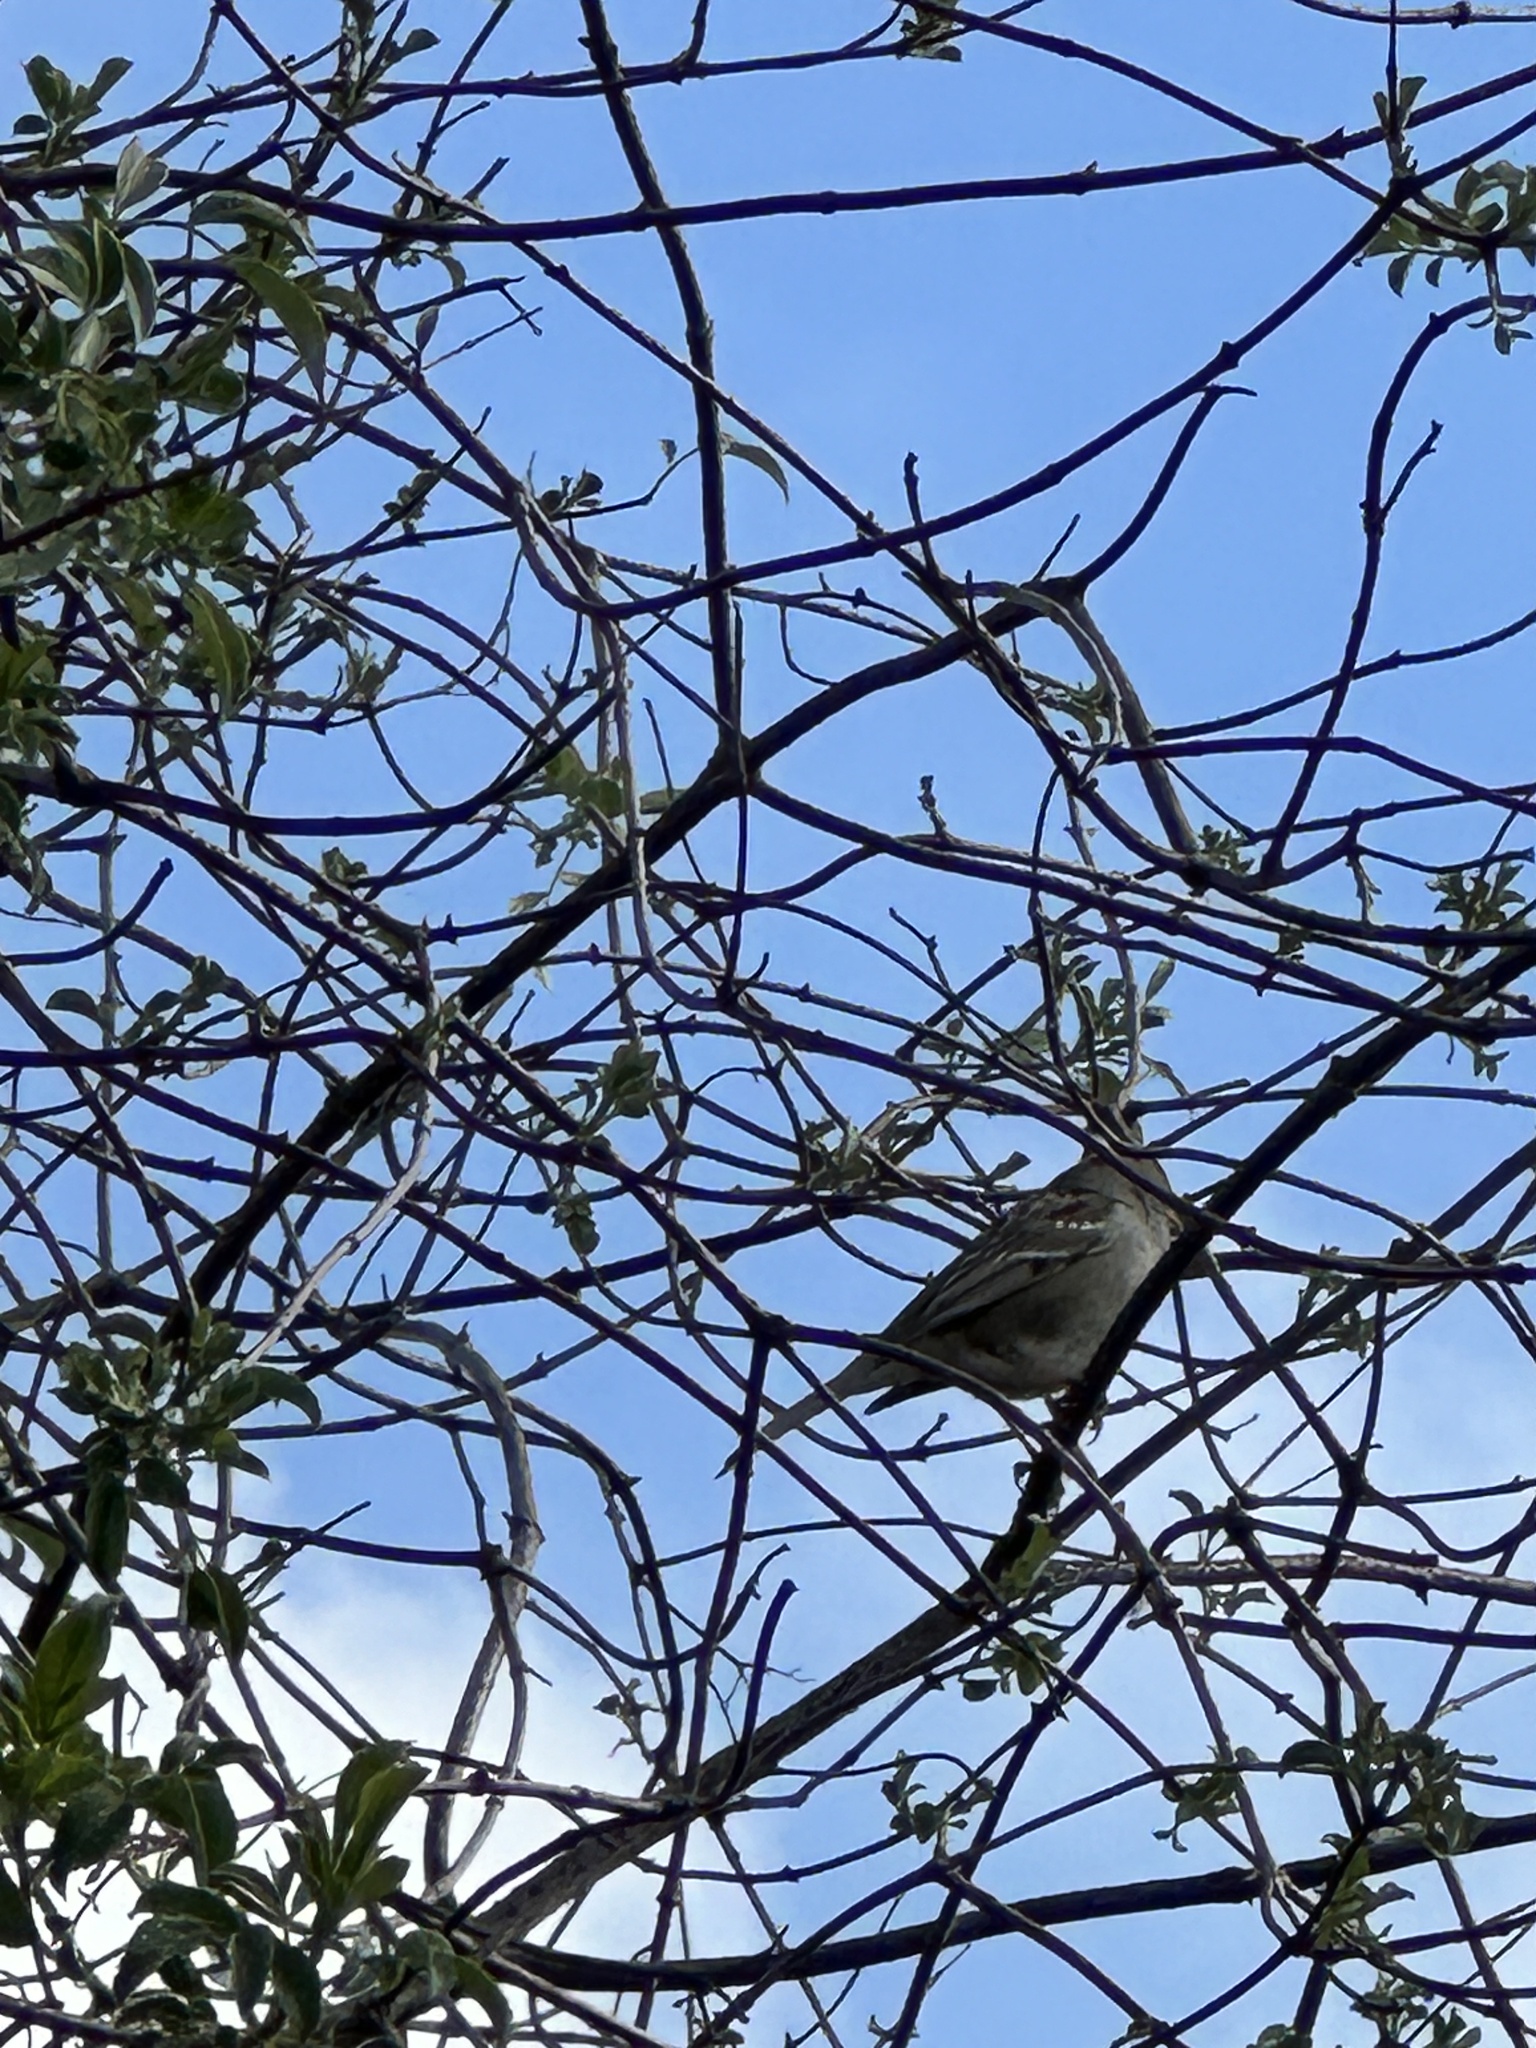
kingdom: Animalia
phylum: Chordata
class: Aves
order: Passeriformes
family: Passeridae
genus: Passer
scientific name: Passer domesticus
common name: House sparrow
